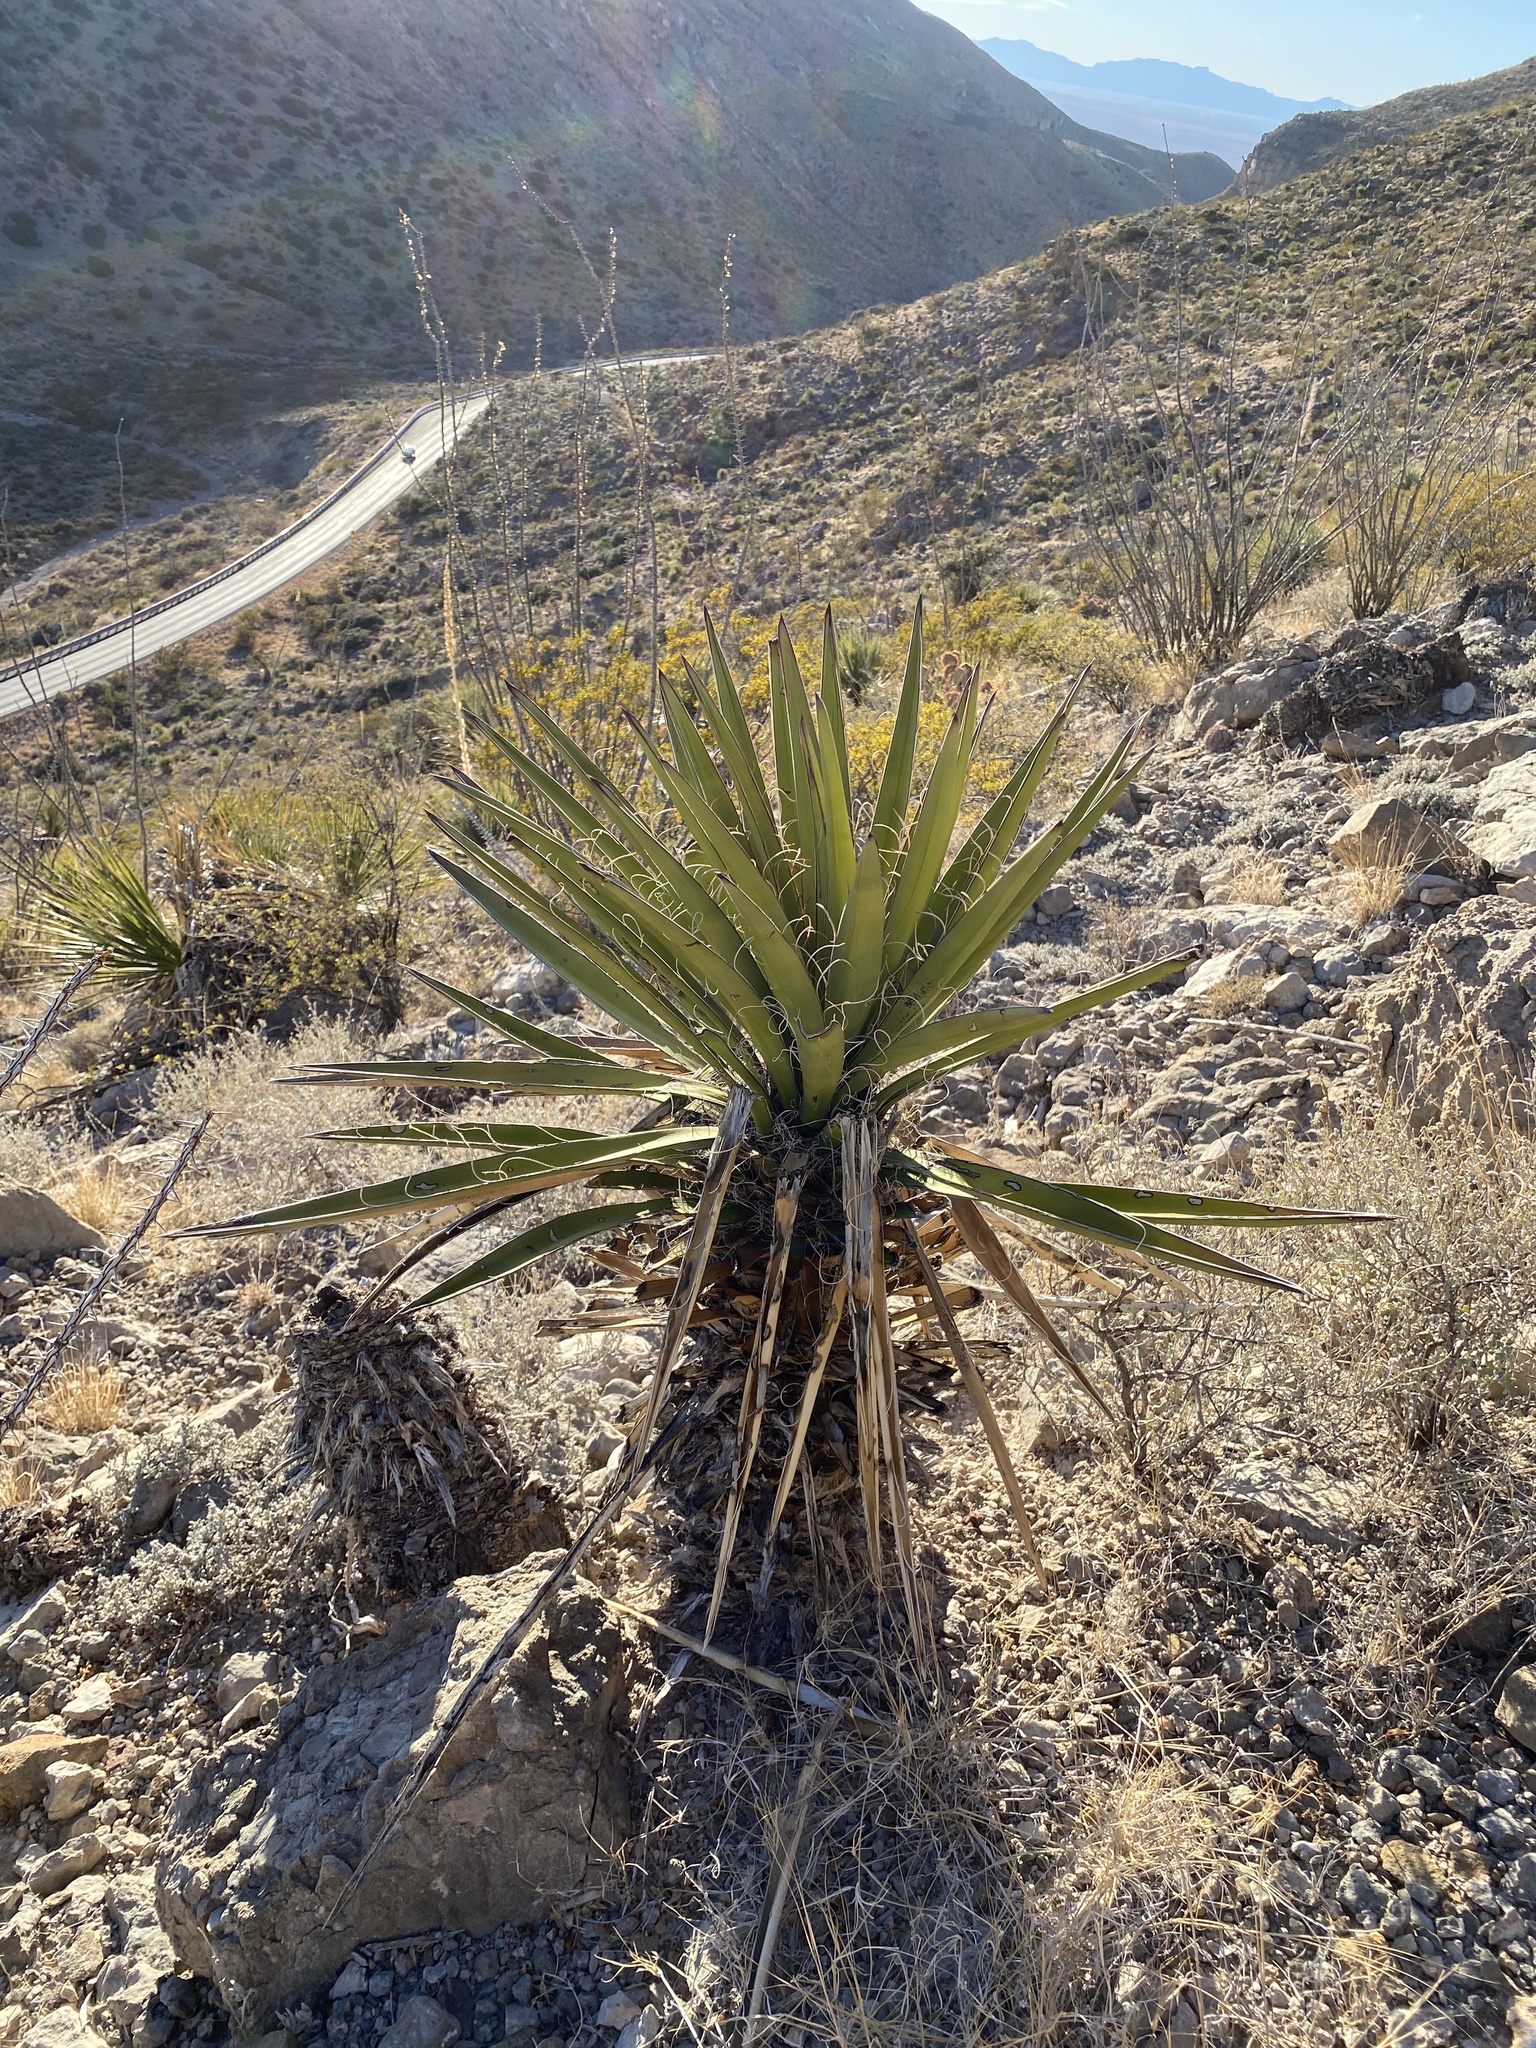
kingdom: Plantae
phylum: Tracheophyta
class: Liliopsida
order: Asparagales
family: Asparagaceae
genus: Yucca
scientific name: Yucca treculiana
